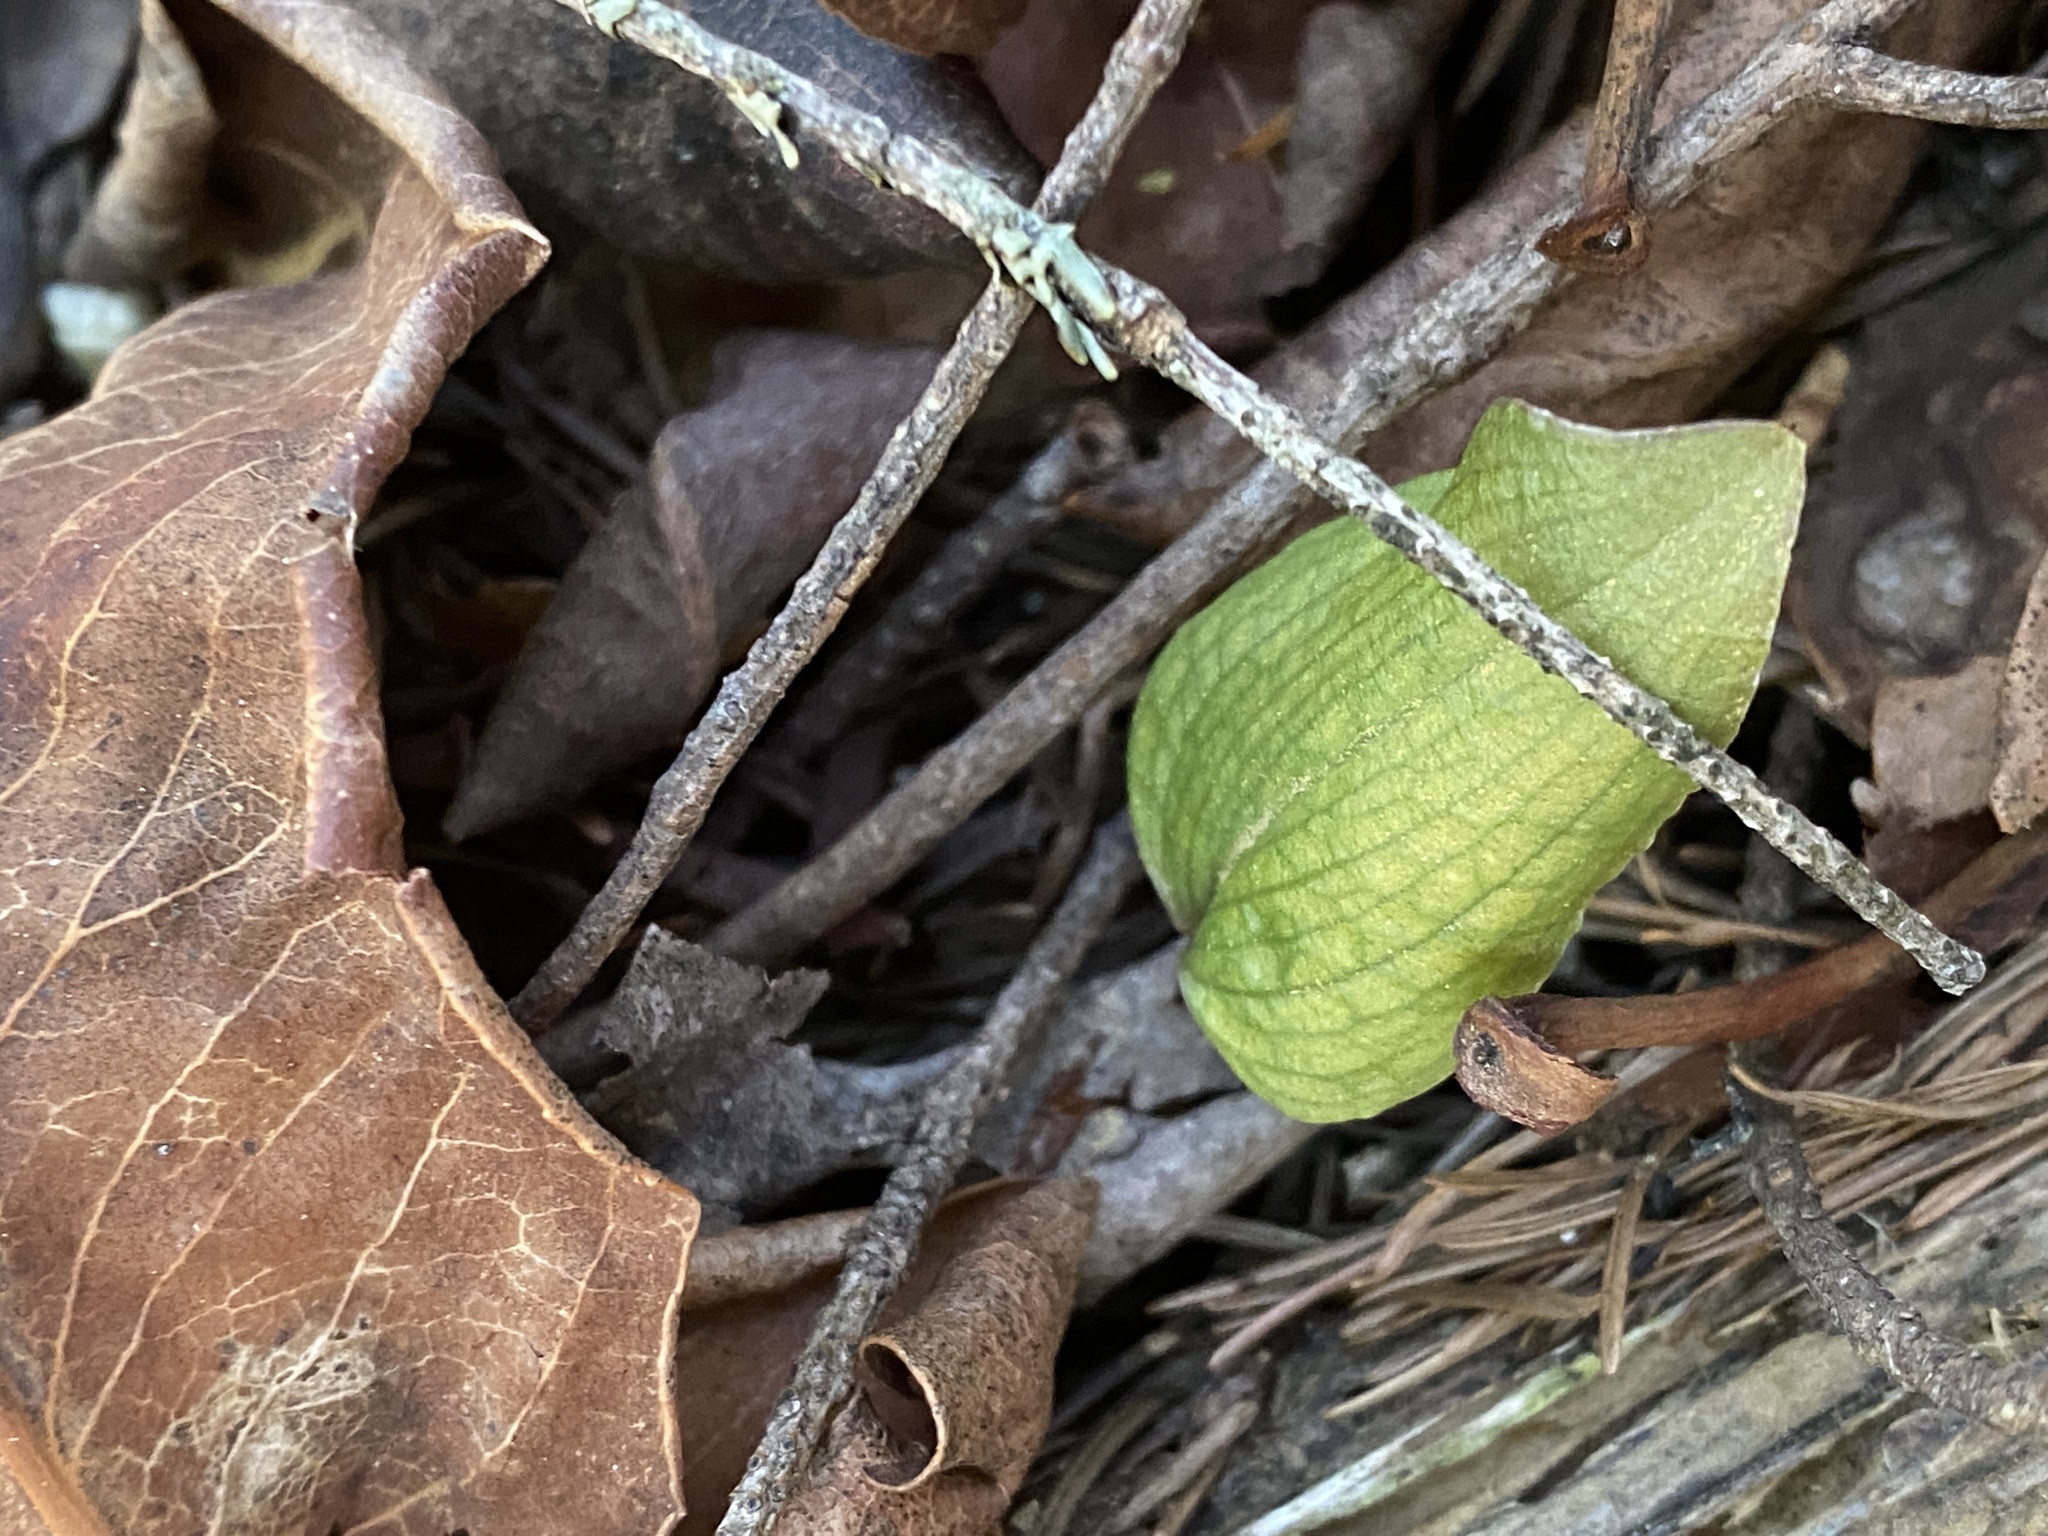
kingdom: Plantae
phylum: Tracheophyta
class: Liliopsida
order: Asparagales
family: Orchidaceae
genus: Calypso
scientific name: Calypso bulbosa
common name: Calypso
